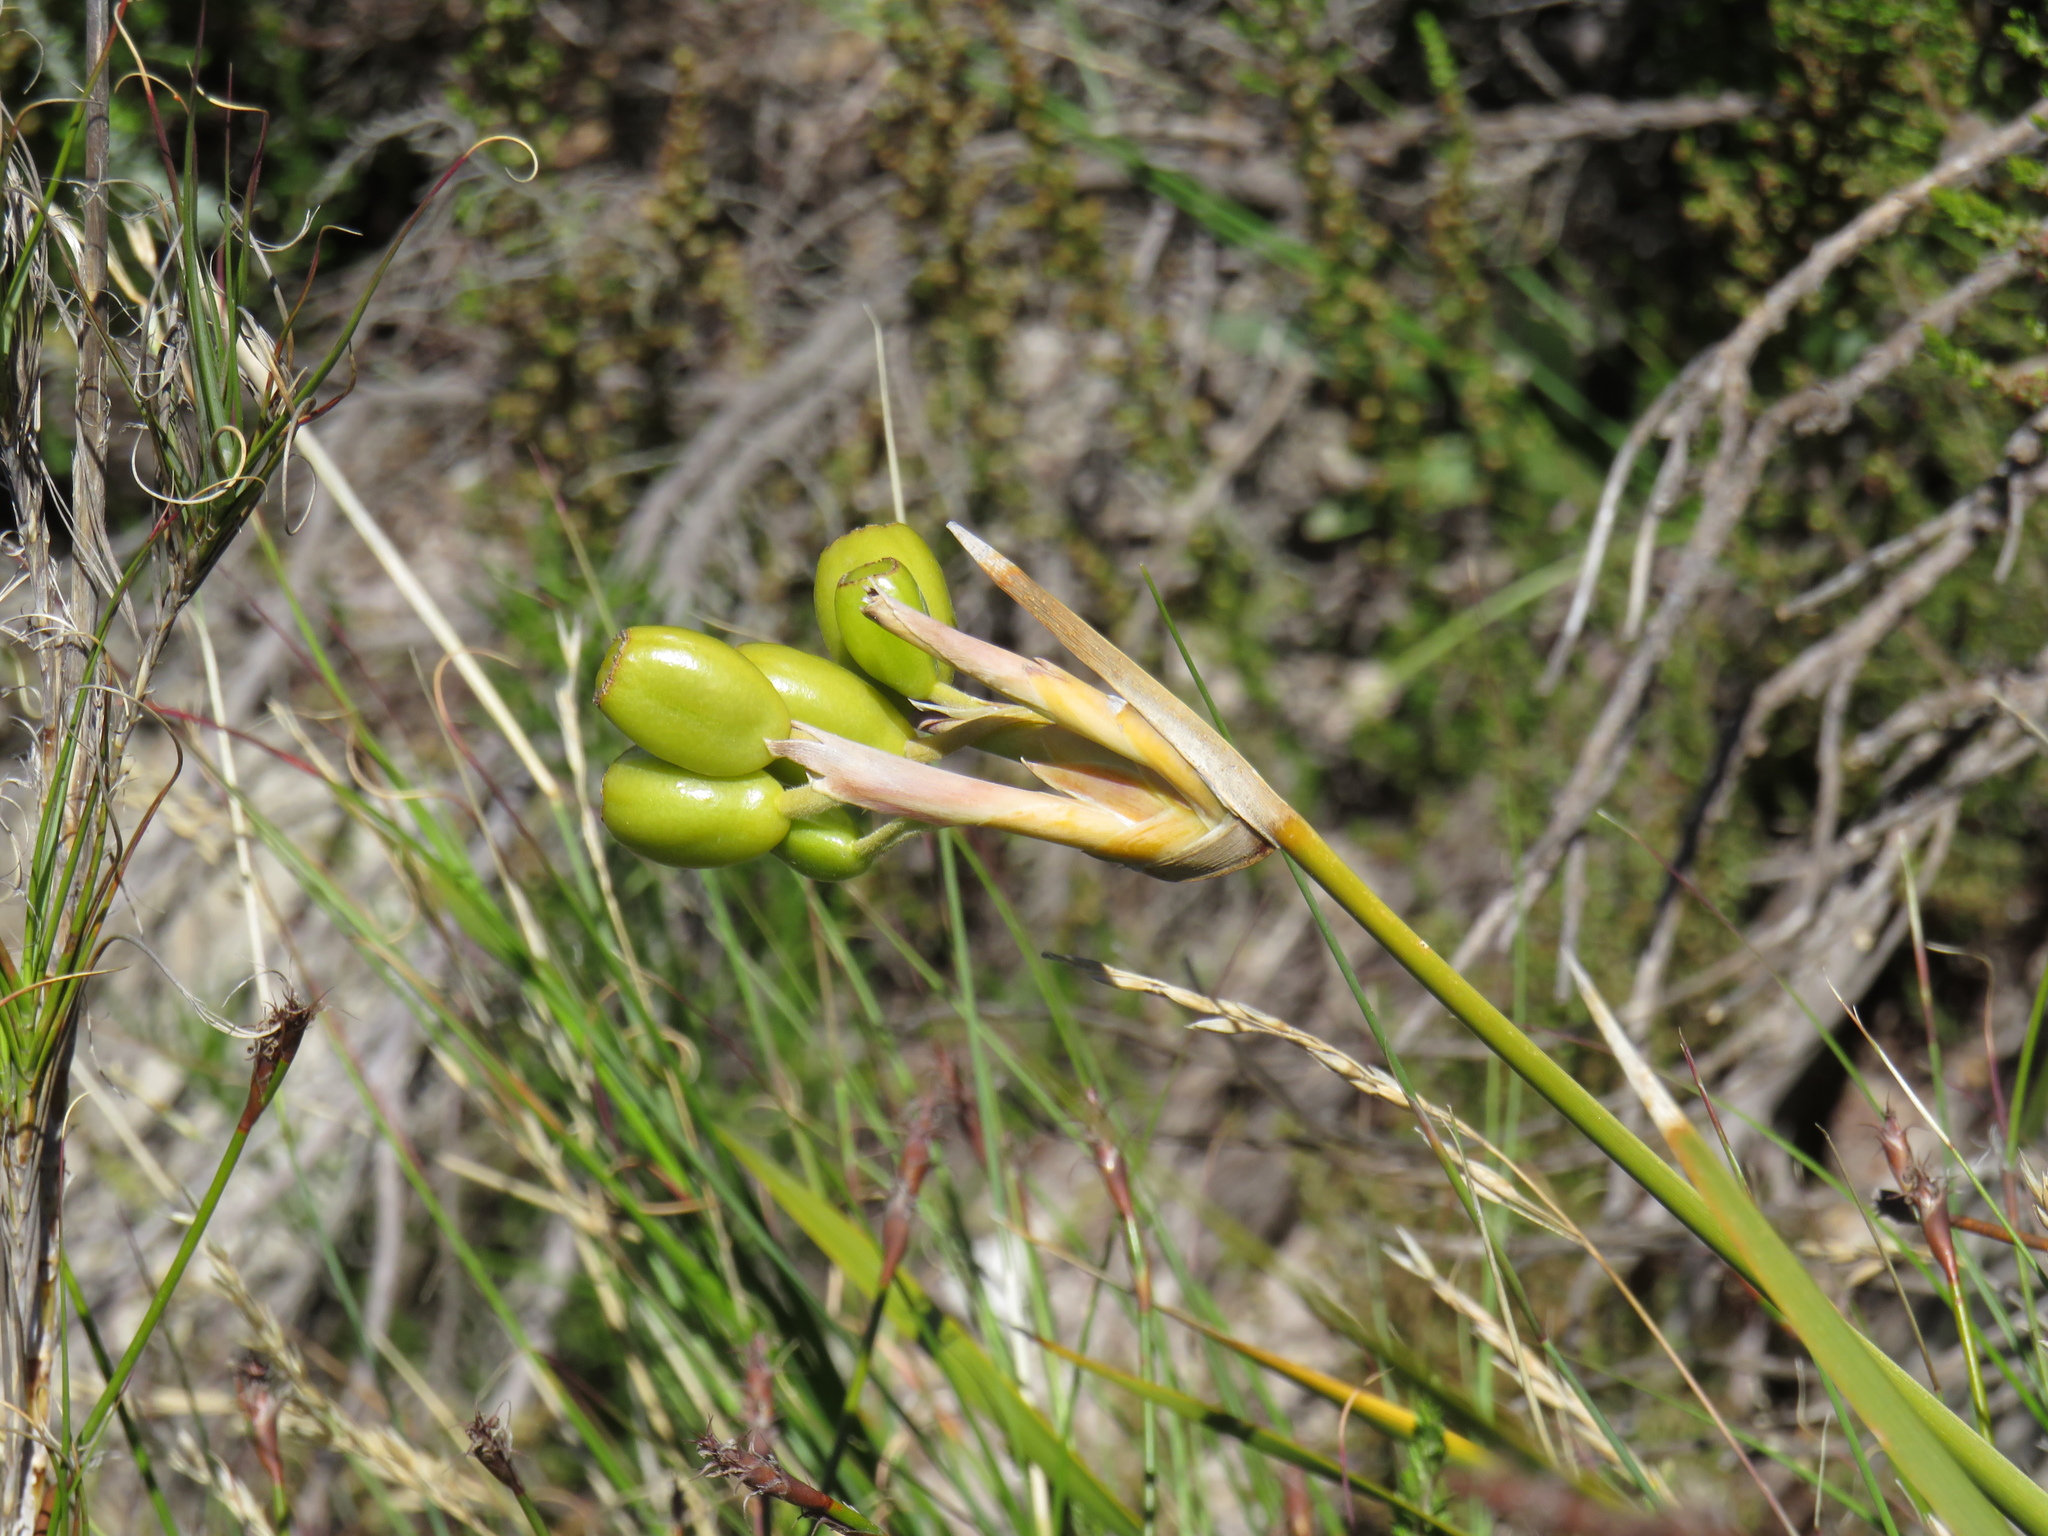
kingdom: Plantae
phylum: Tracheophyta
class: Liliopsida
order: Asparagales
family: Iridaceae
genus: Bobartia
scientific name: Bobartia gladiata
